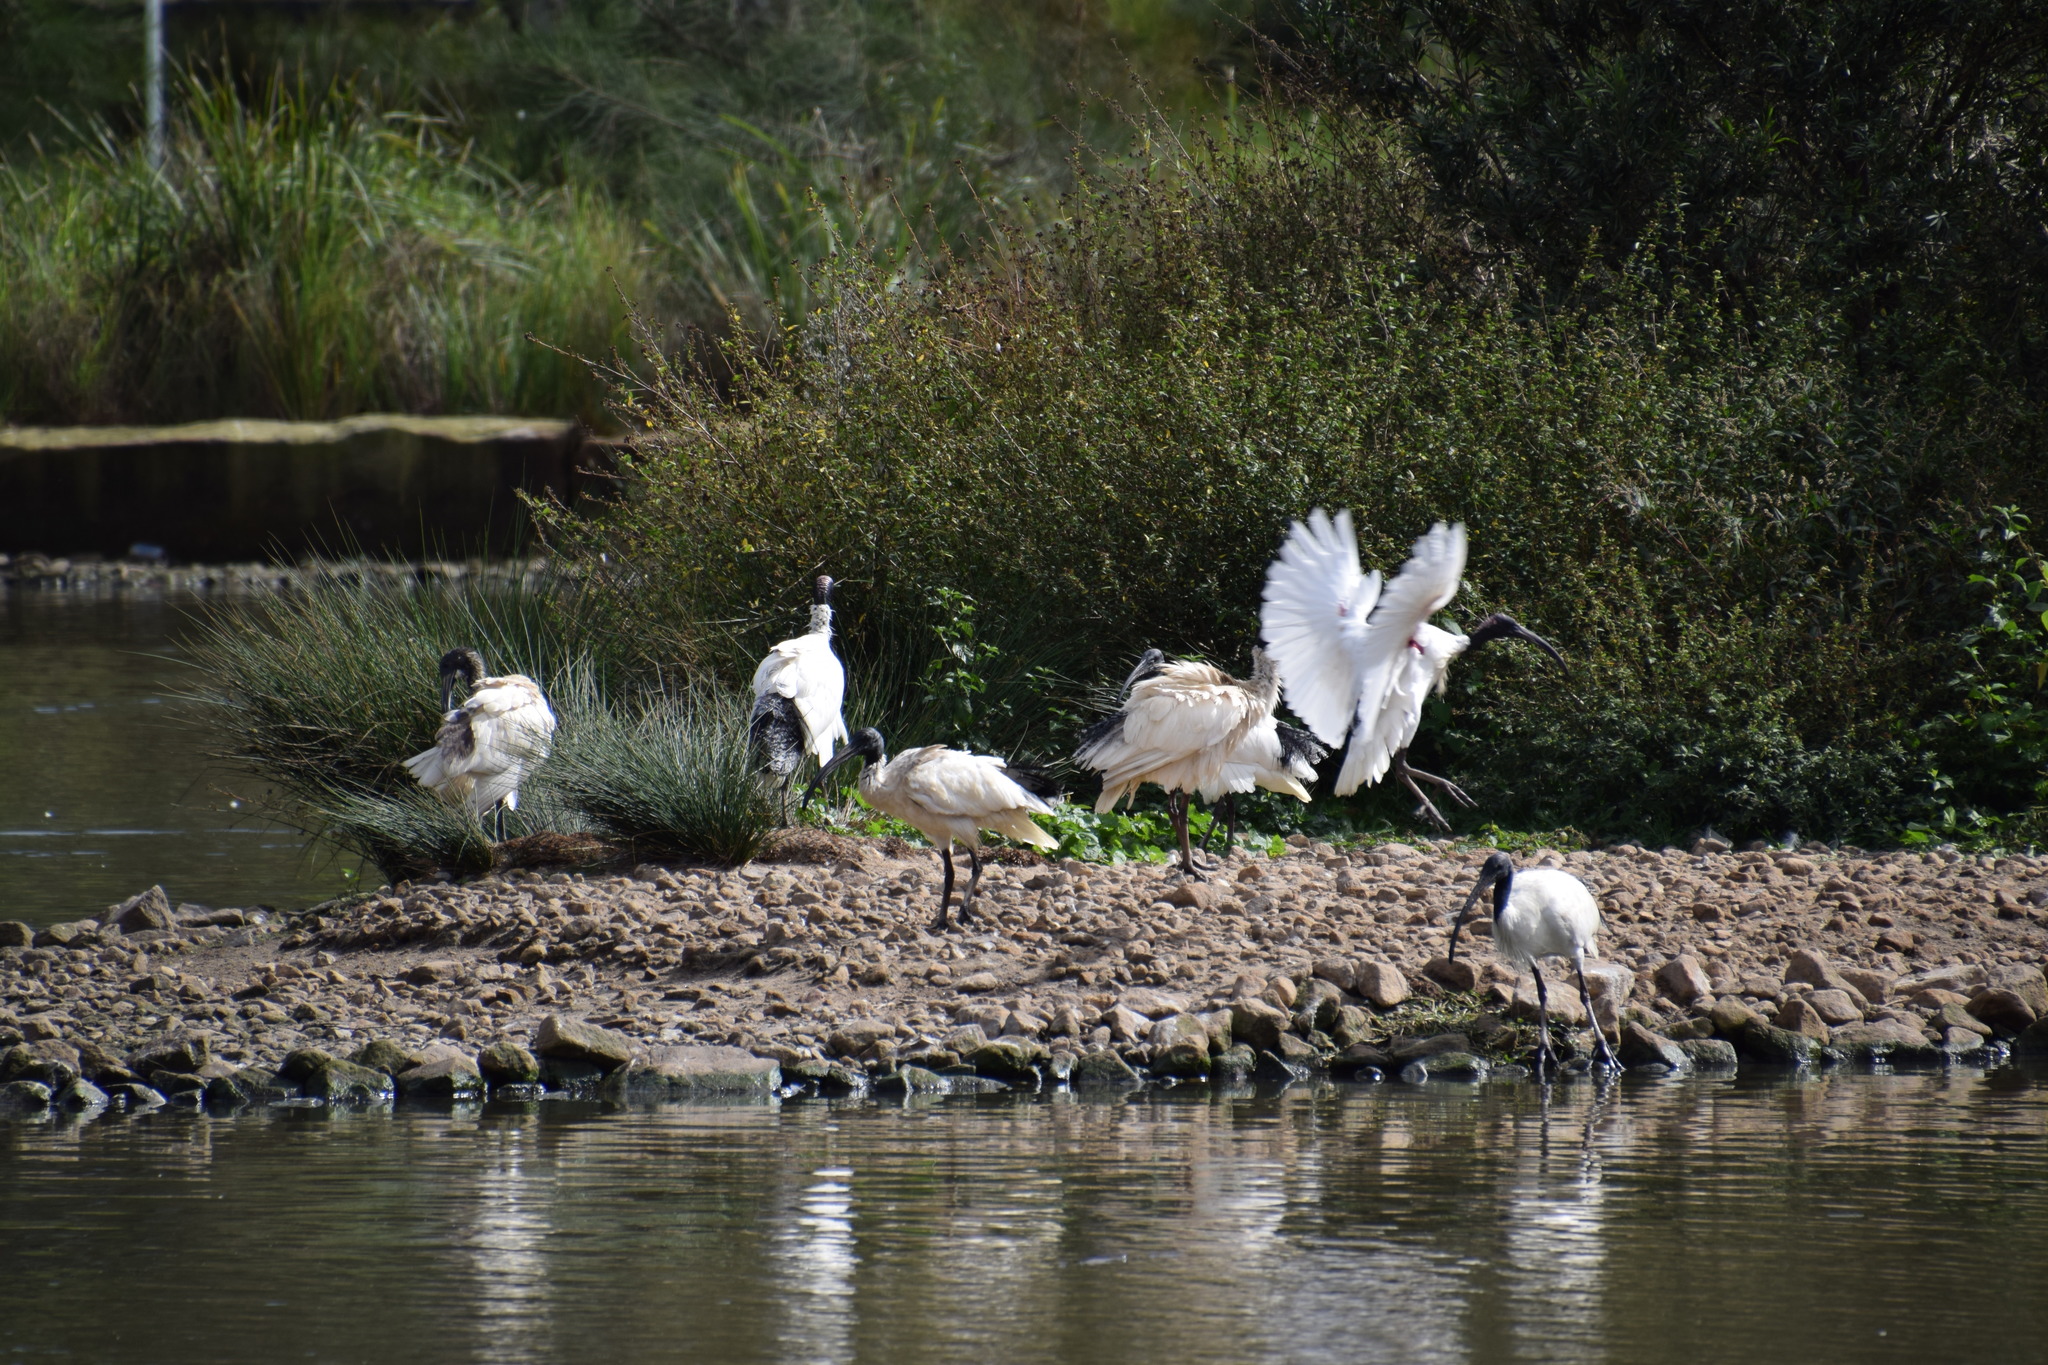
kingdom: Animalia
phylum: Chordata
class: Aves
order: Pelecaniformes
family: Threskiornithidae
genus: Threskiornis
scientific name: Threskiornis molucca
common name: Australian white ibis
